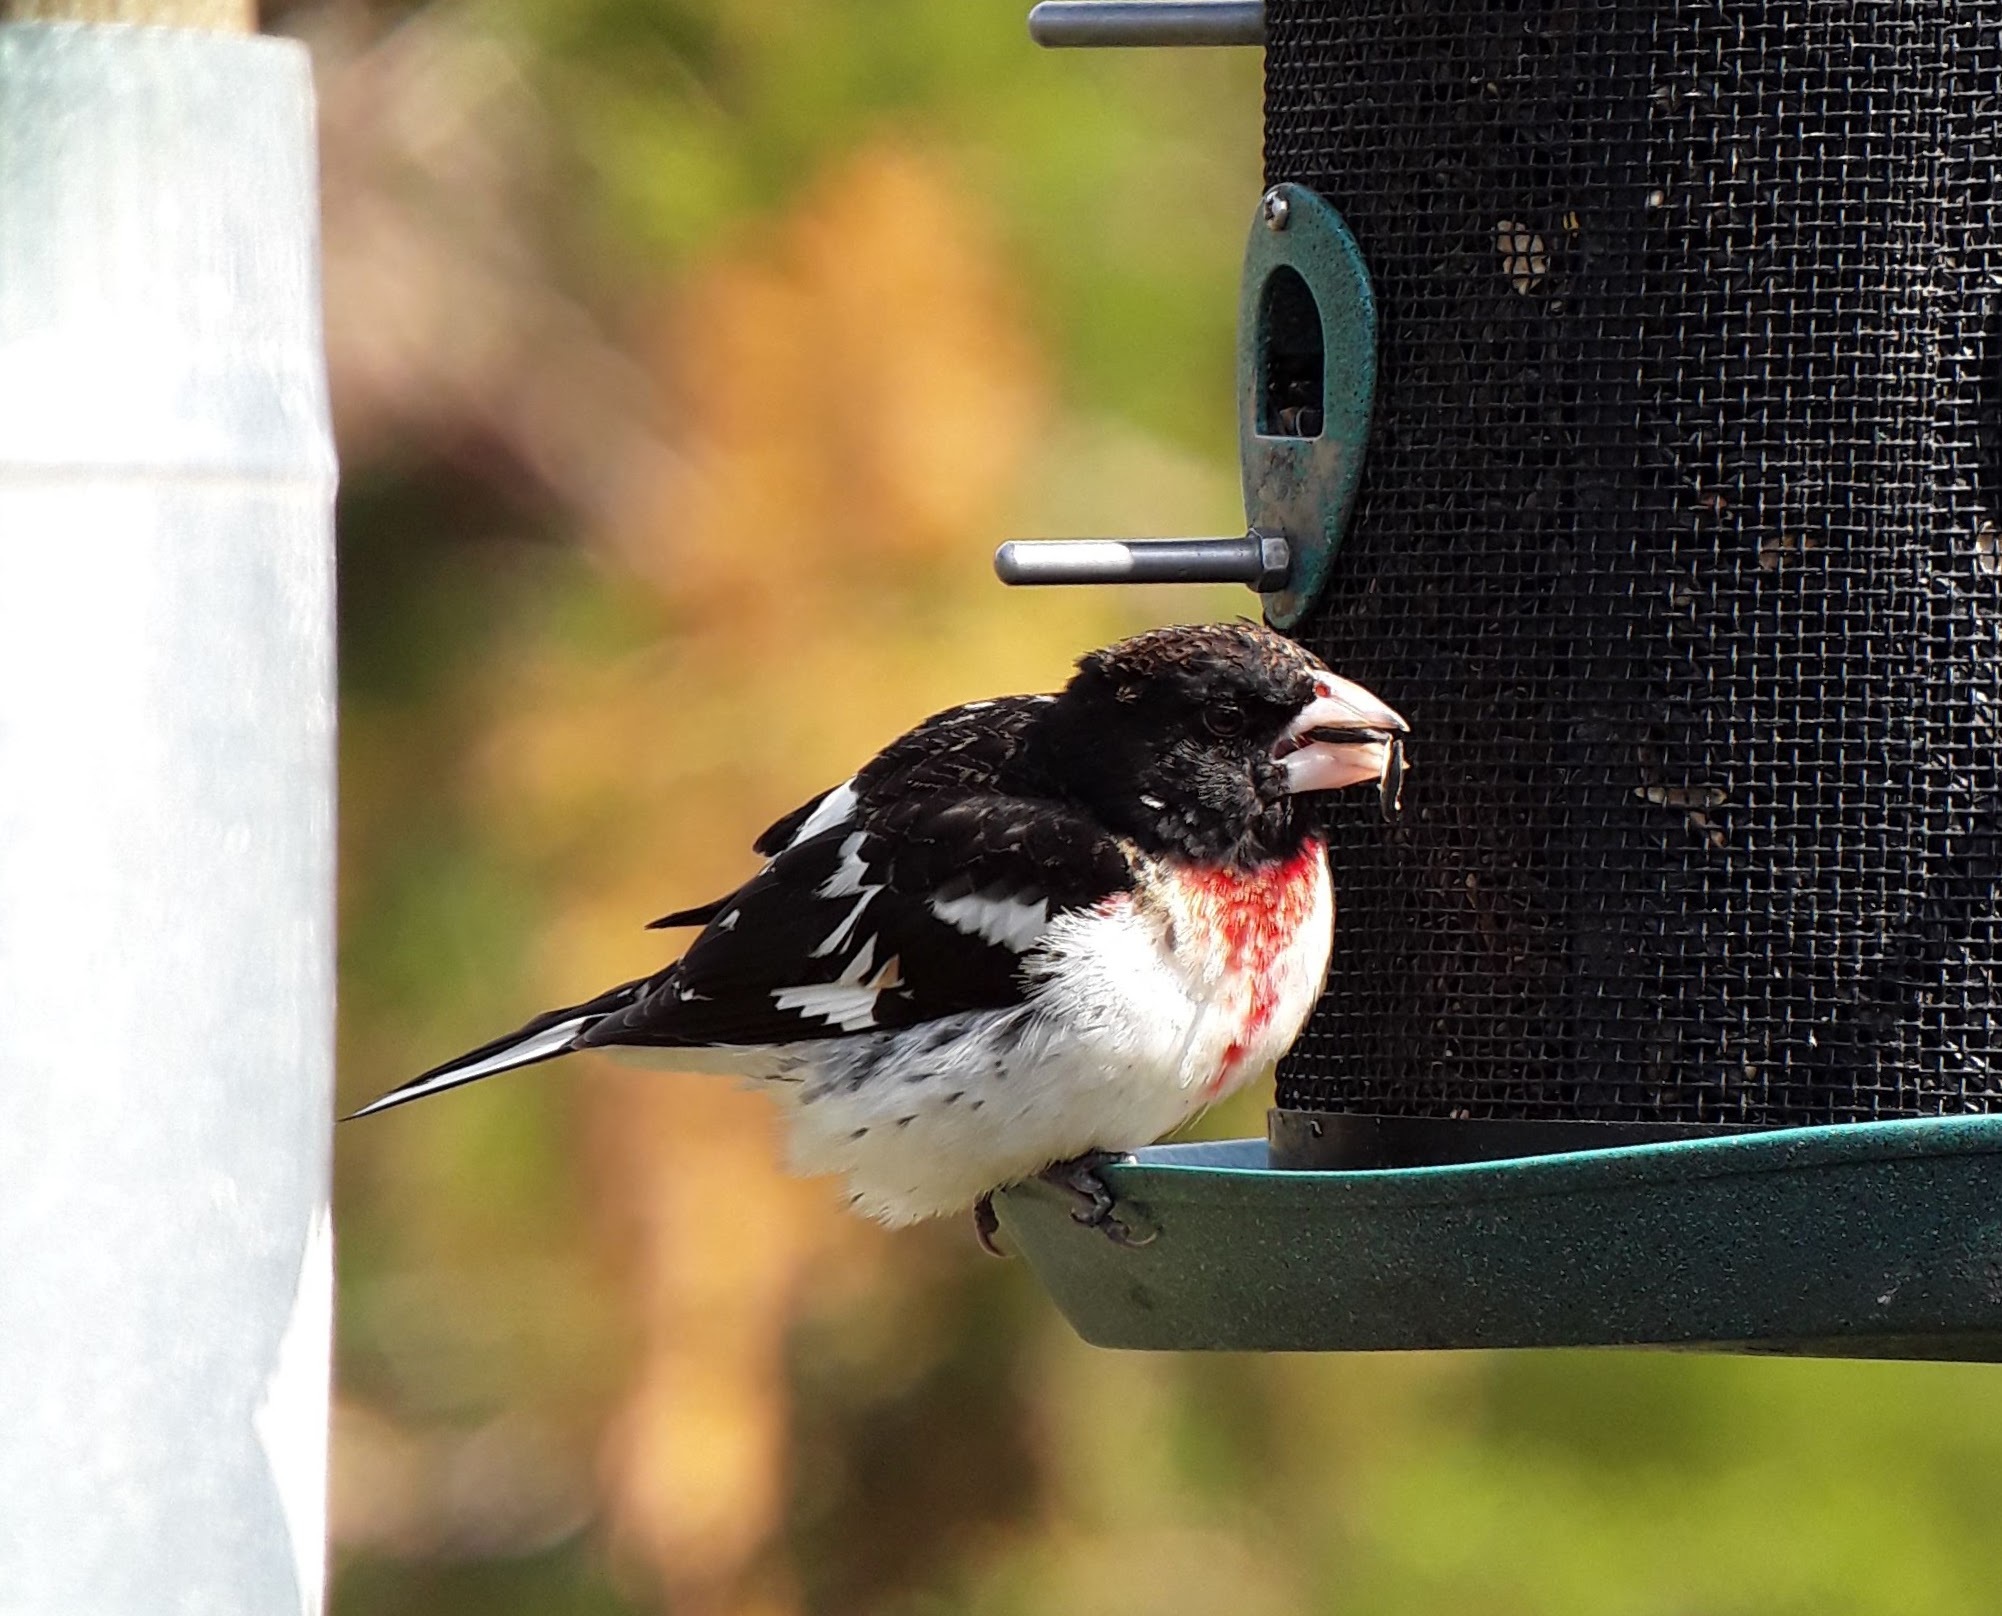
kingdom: Animalia
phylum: Chordata
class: Aves
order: Passeriformes
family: Cardinalidae
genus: Pheucticus
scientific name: Pheucticus ludovicianus
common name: Rose-breasted grosbeak
